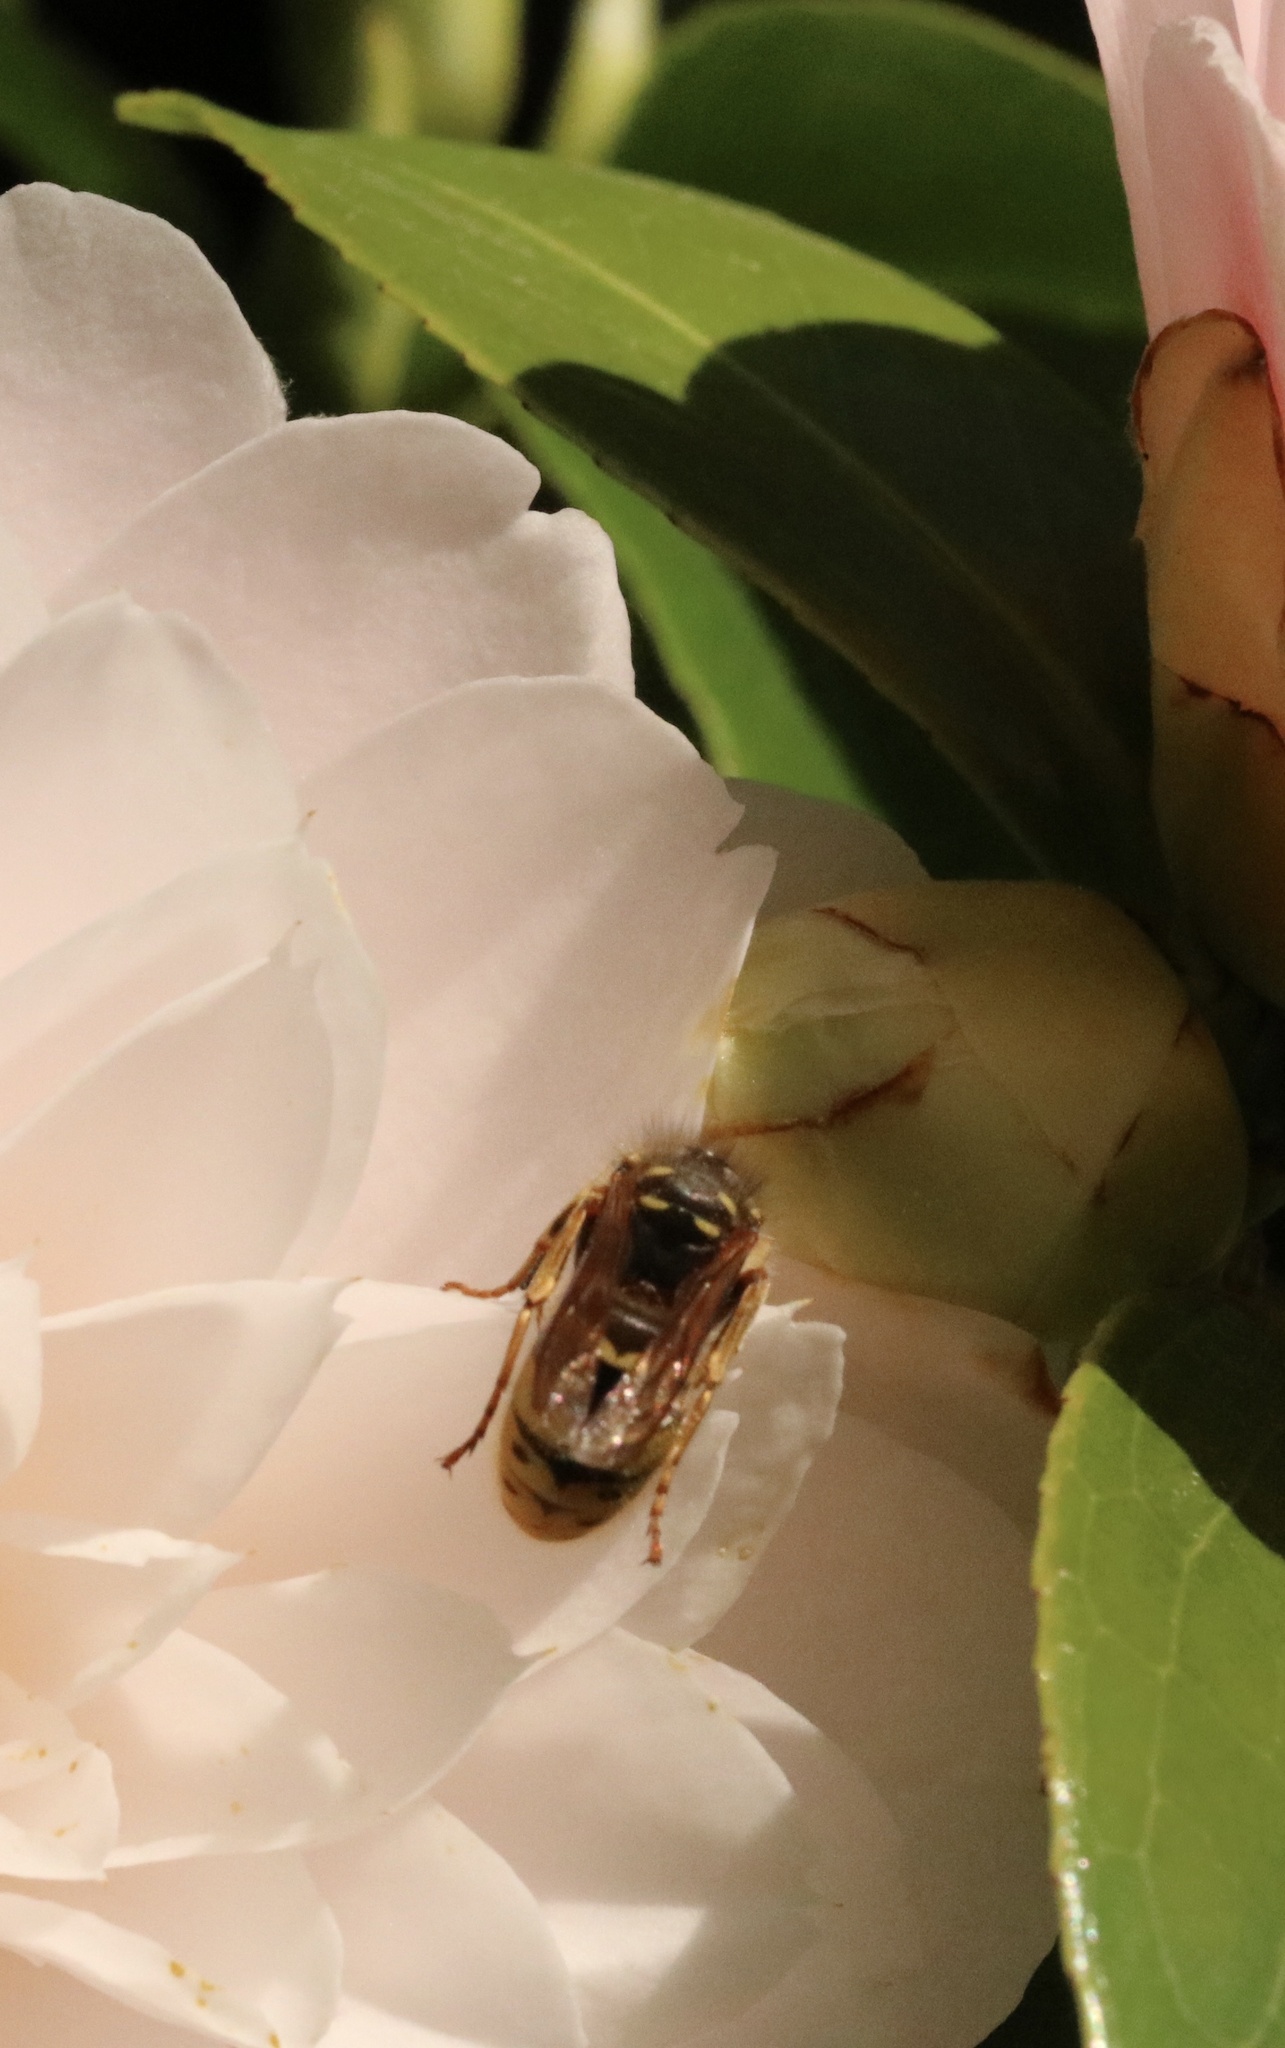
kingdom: Animalia
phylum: Arthropoda
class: Insecta
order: Hymenoptera
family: Vespidae
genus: Vespula
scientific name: Vespula vulgaris
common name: Common wasp
